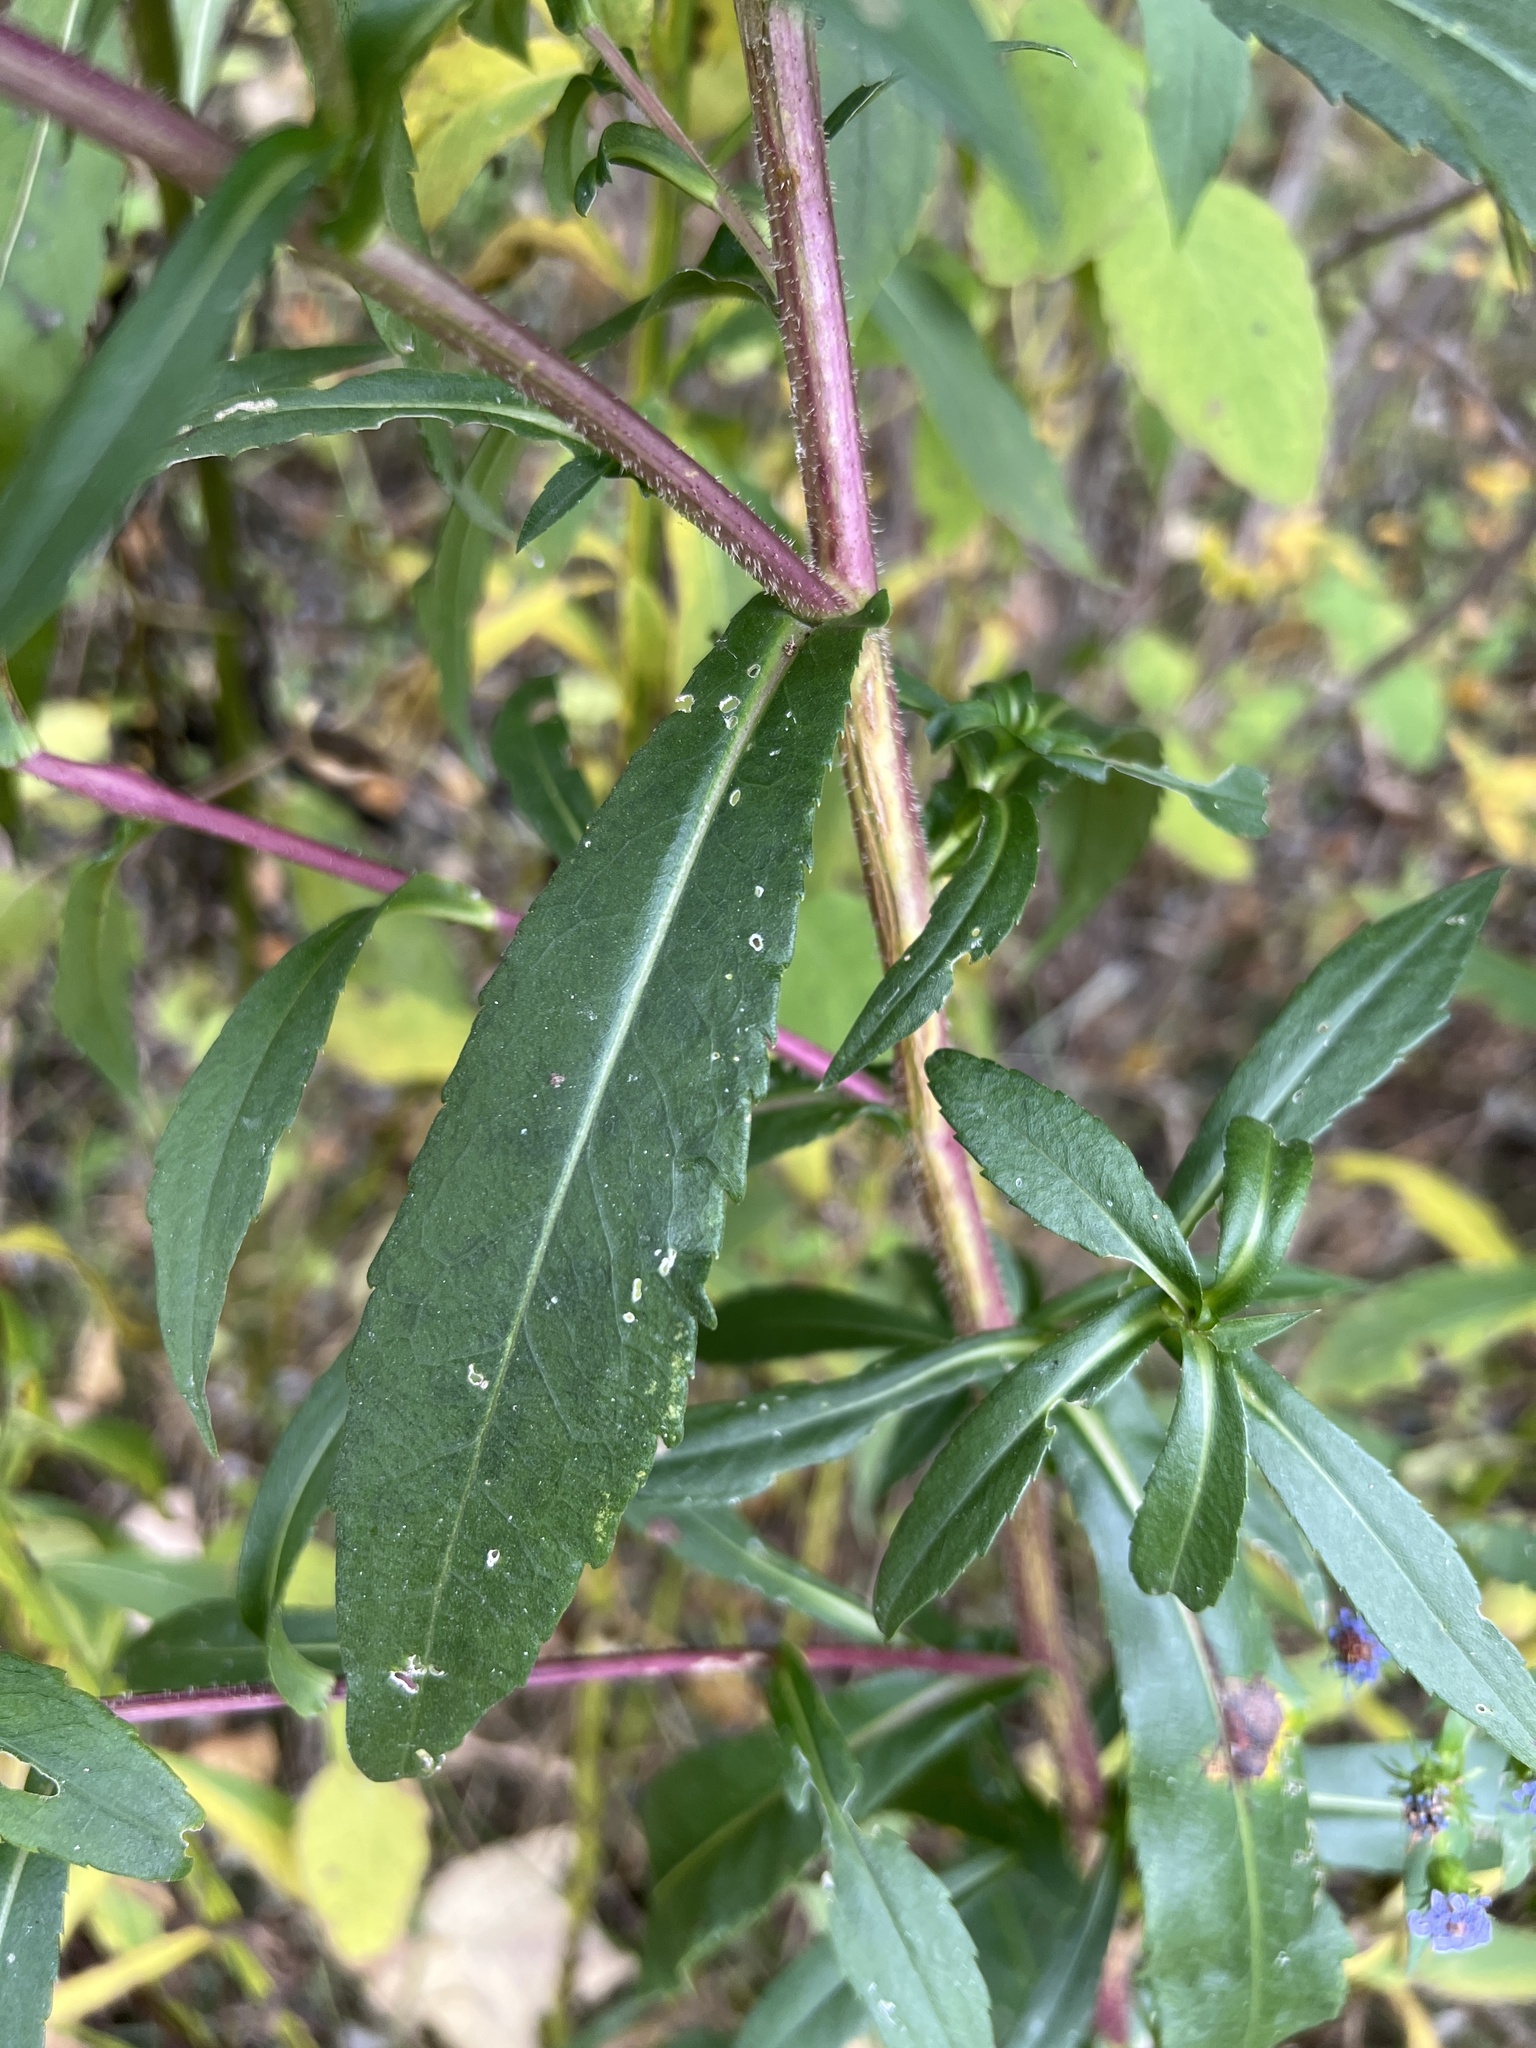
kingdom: Plantae
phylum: Tracheophyta
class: Magnoliopsida
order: Asterales
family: Asteraceae
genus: Symphyotrichum
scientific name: Symphyotrichum puniceum
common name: Bog aster
